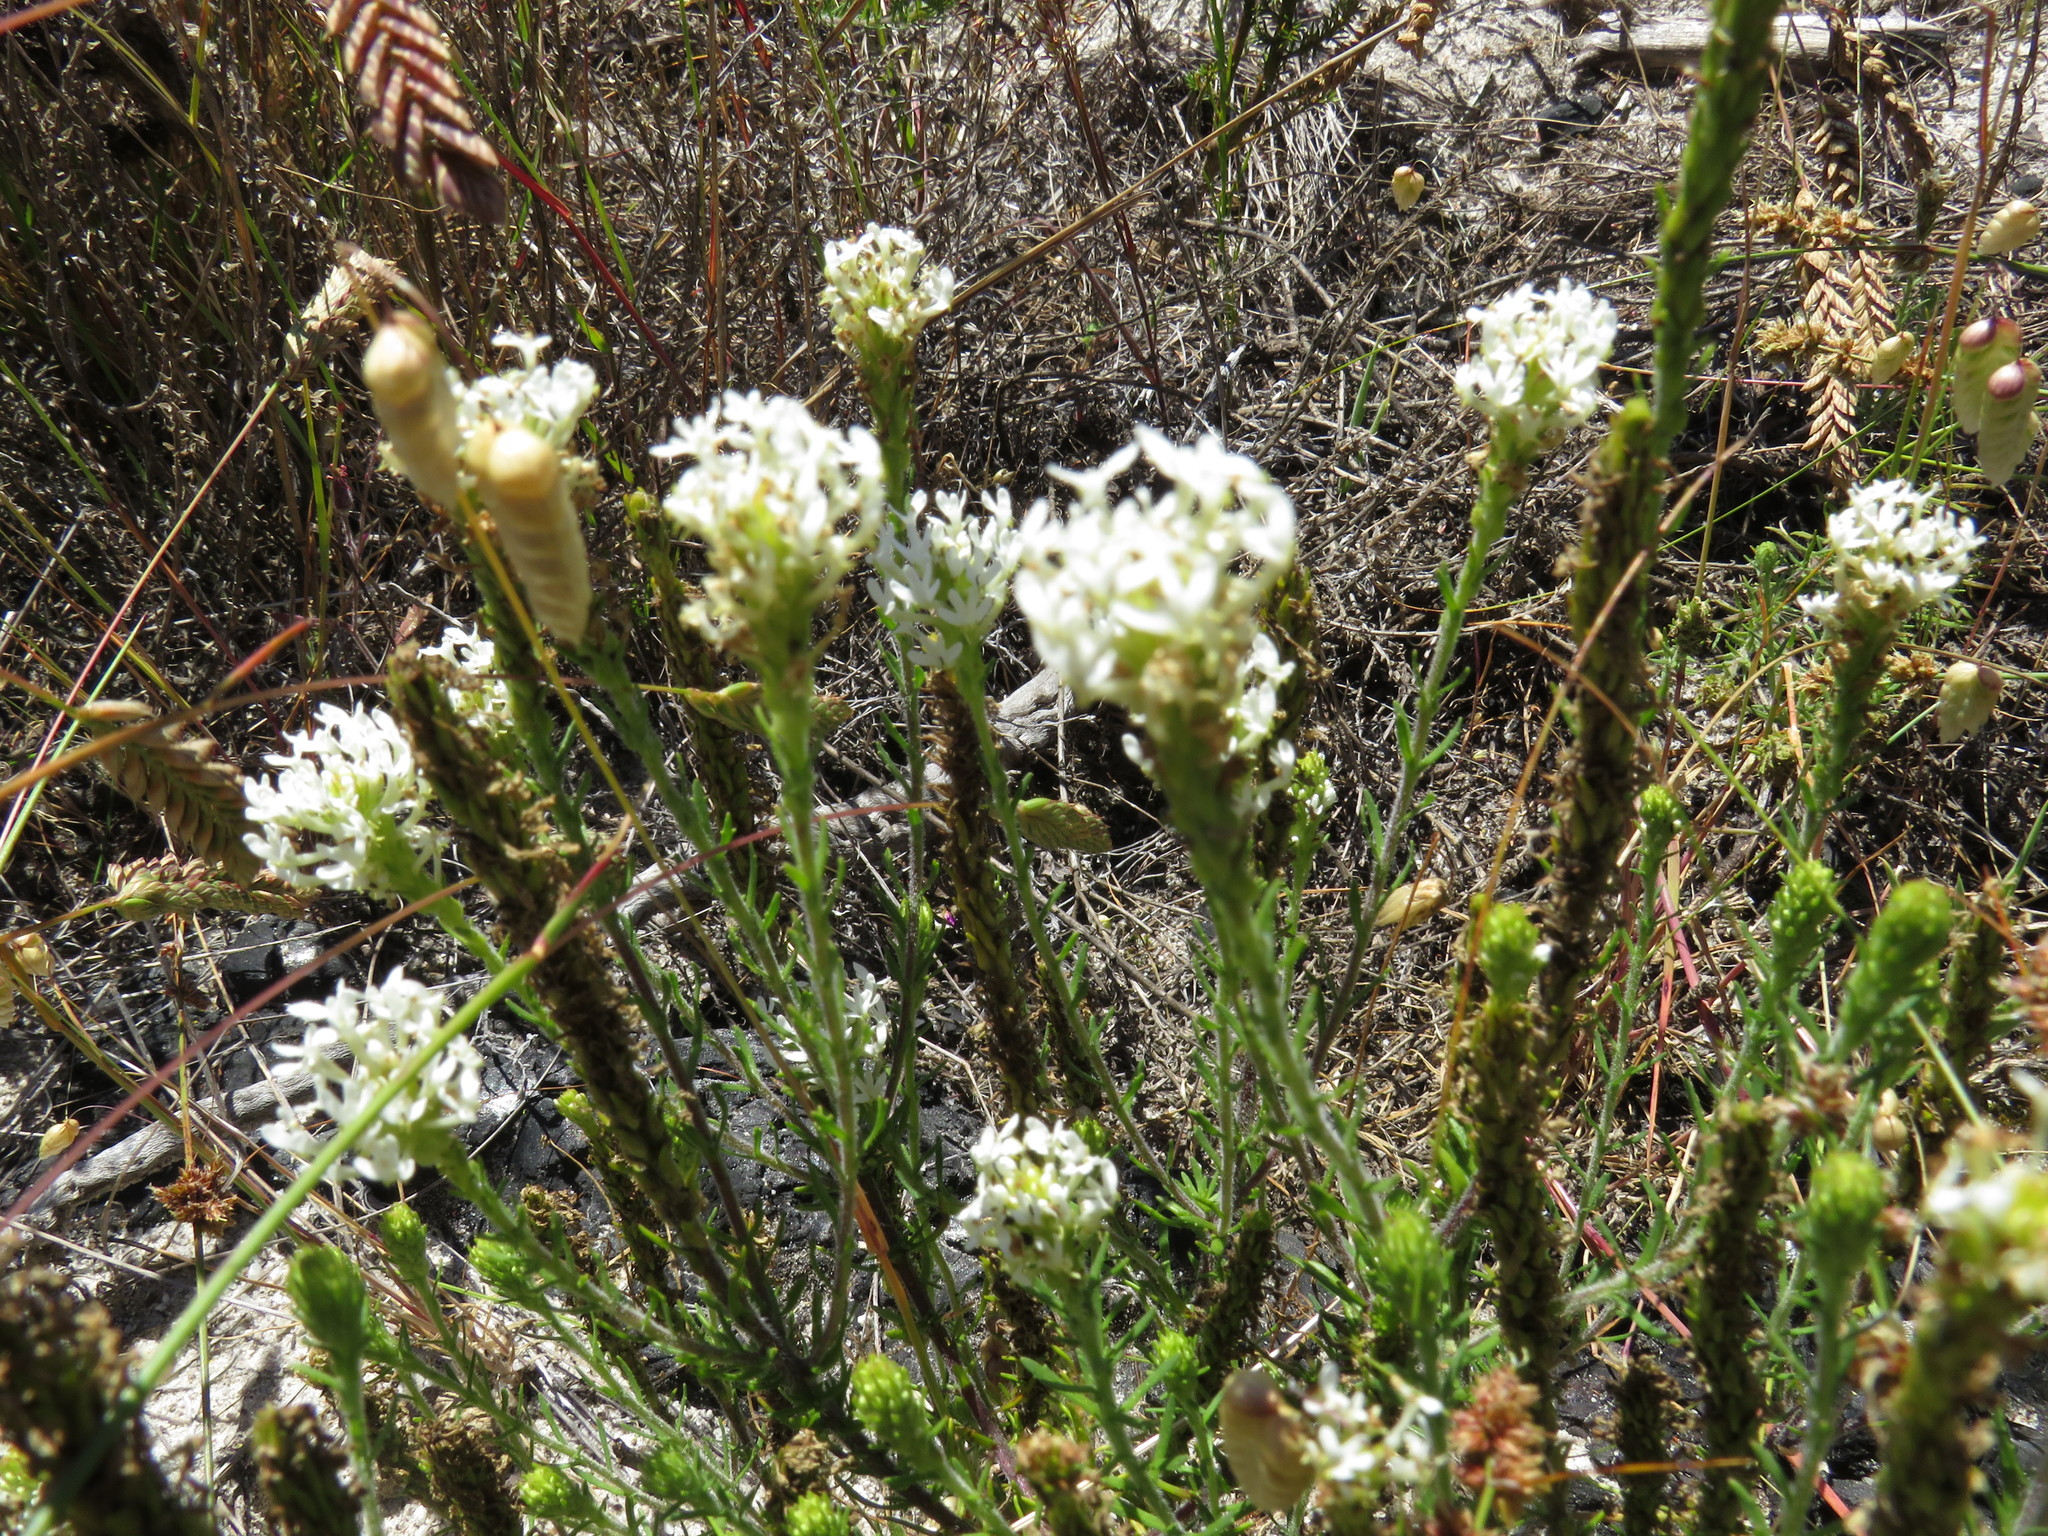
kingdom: Plantae
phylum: Tracheophyta
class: Magnoliopsida
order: Lamiales
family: Scrophulariaceae
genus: Dischisma
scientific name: Dischisma ciliatum
